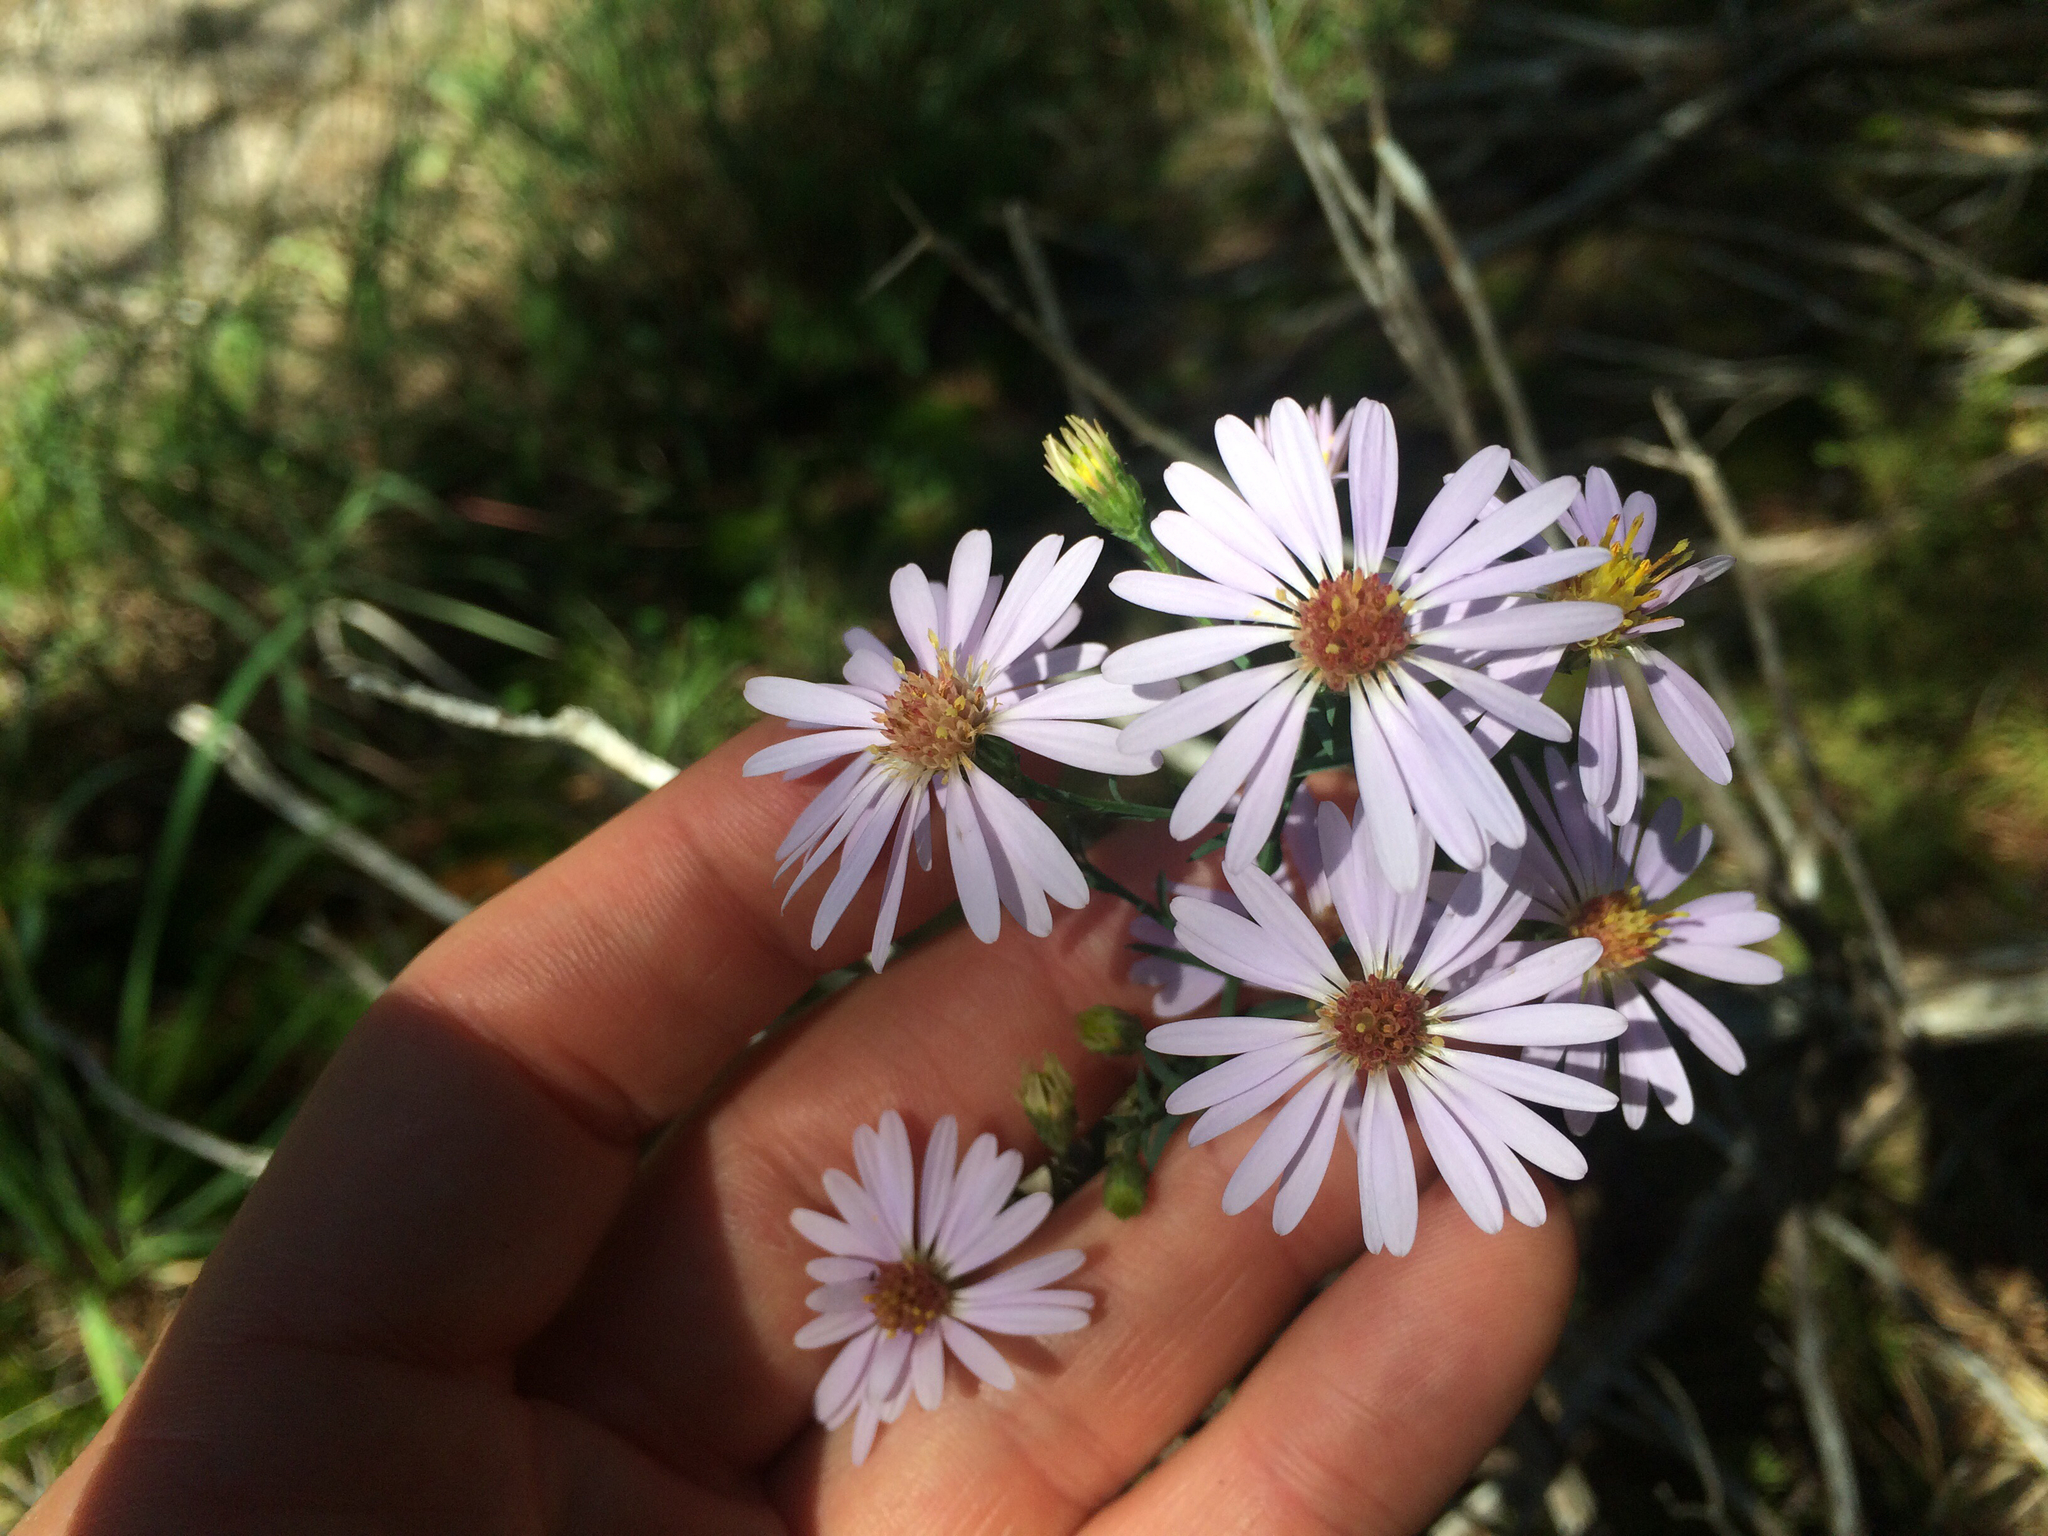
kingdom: Plantae
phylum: Tracheophyta
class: Magnoliopsida
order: Asterales
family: Asteraceae
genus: Symphyotrichum
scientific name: Symphyotrichum laeve
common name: Glaucous aster
